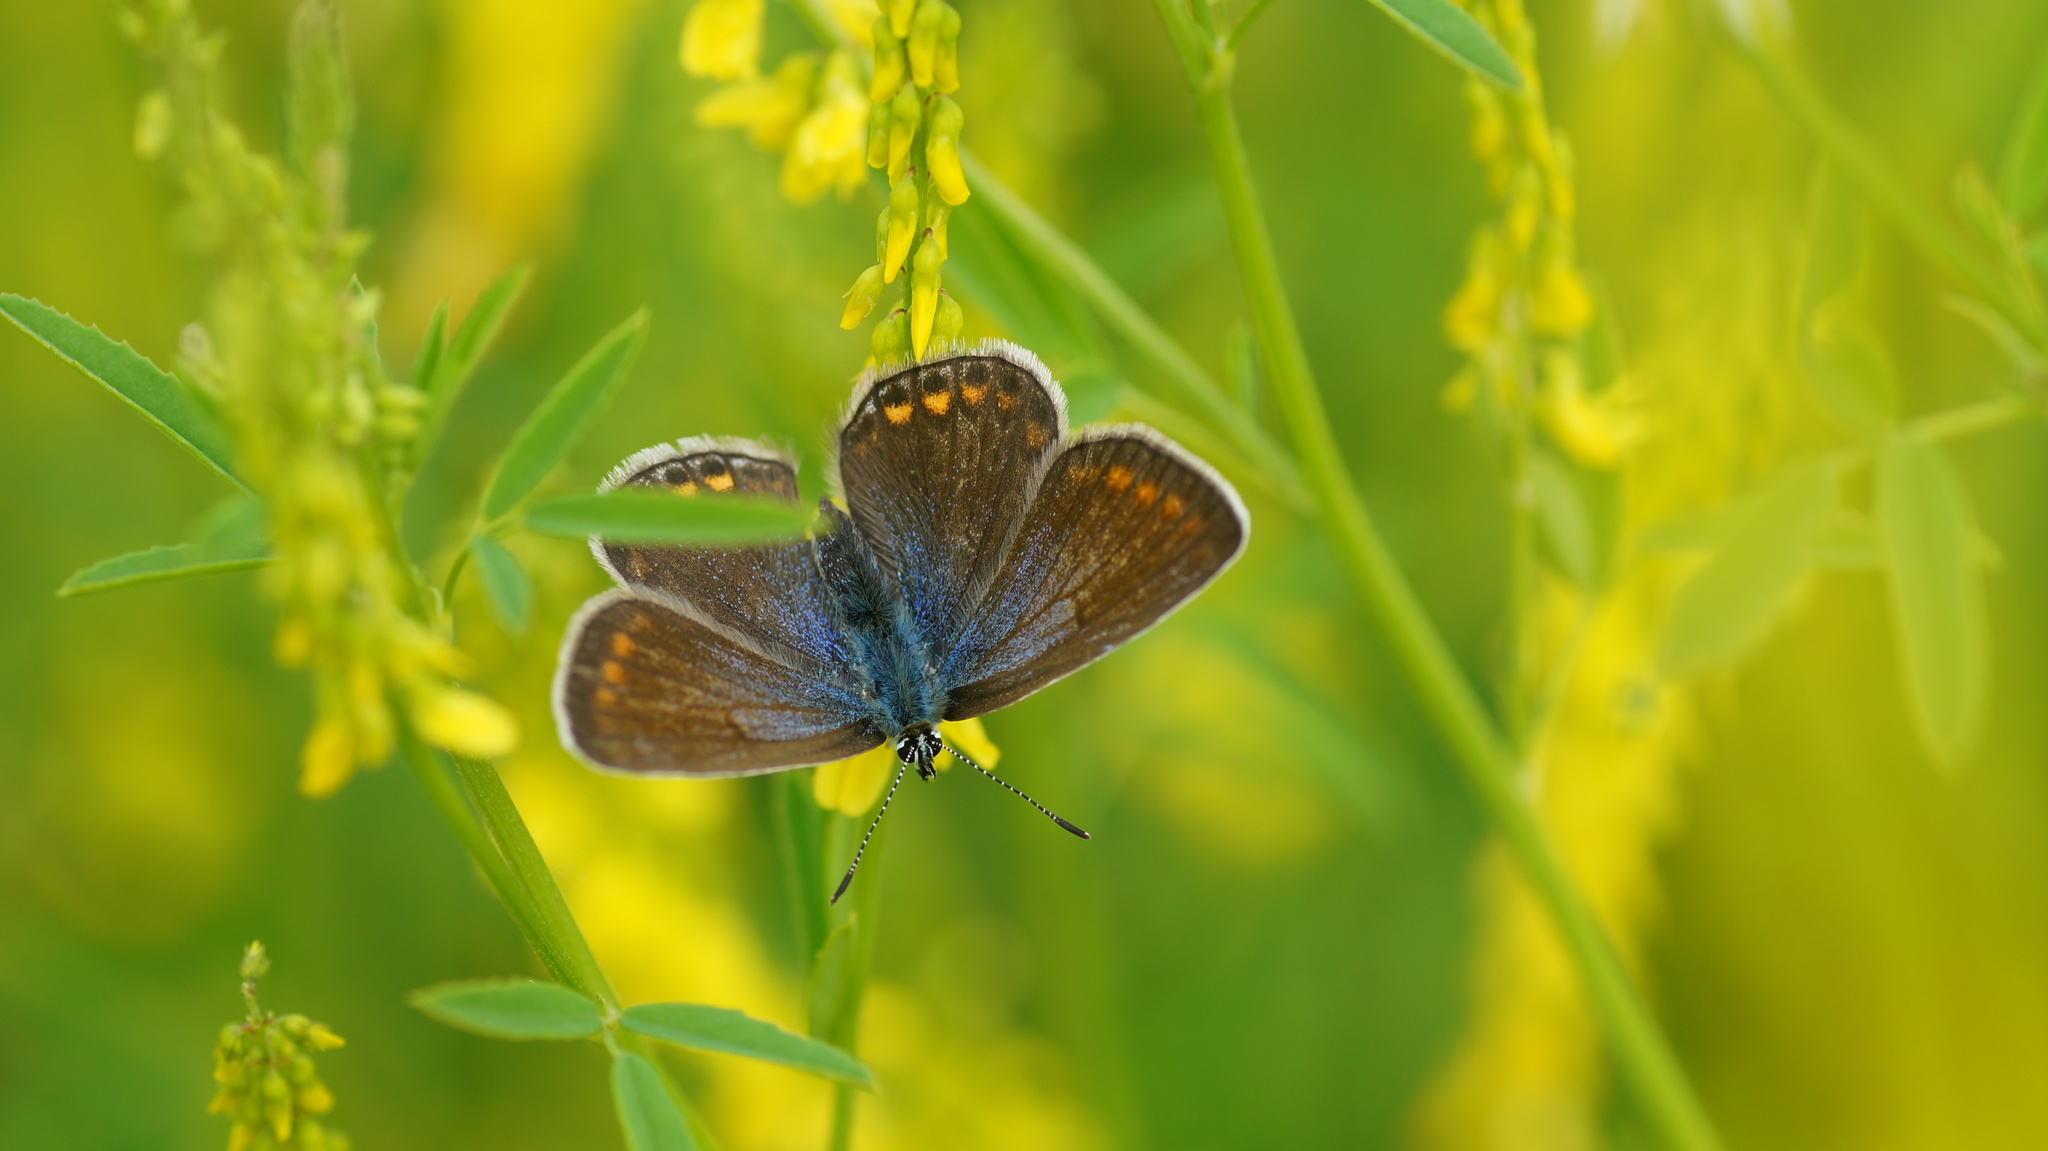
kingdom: Animalia
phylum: Arthropoda
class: Insecta
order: Lepidoptera
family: Lycaenidae
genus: Polyommatus
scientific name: Polyommatus
